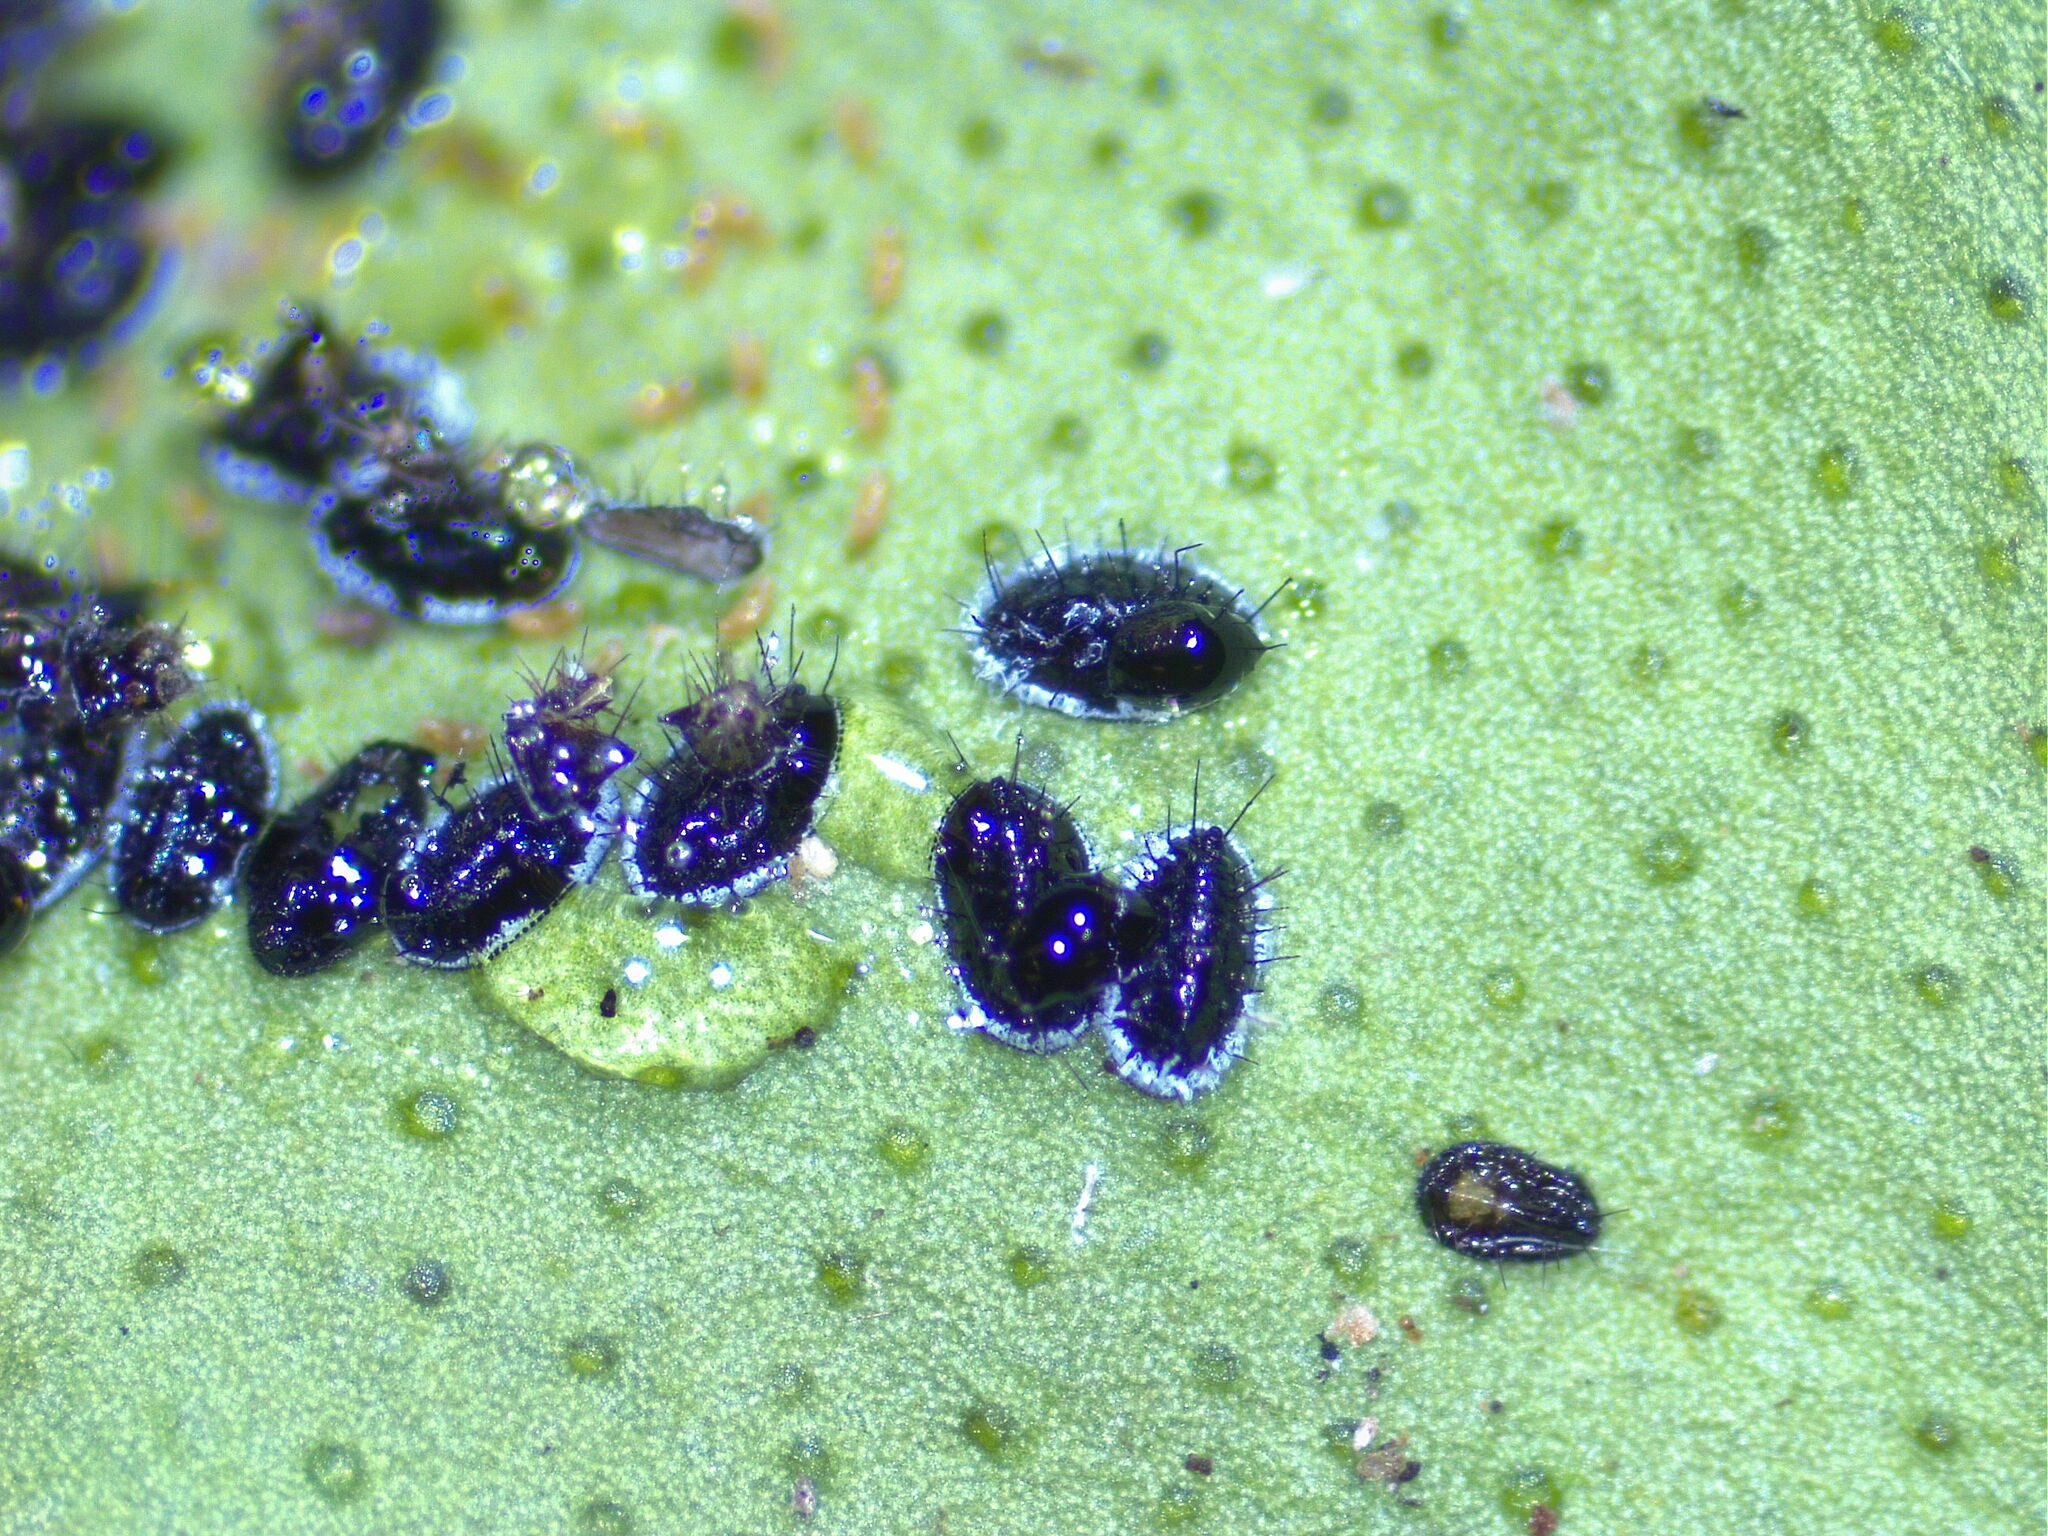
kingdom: Animalia
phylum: Arthropoda
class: Insecta
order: Hemiptera
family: Aleyrodidae
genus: Aleurocanthus
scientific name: Aleurocanthus spiniferus
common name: Orange spiny whitefly
